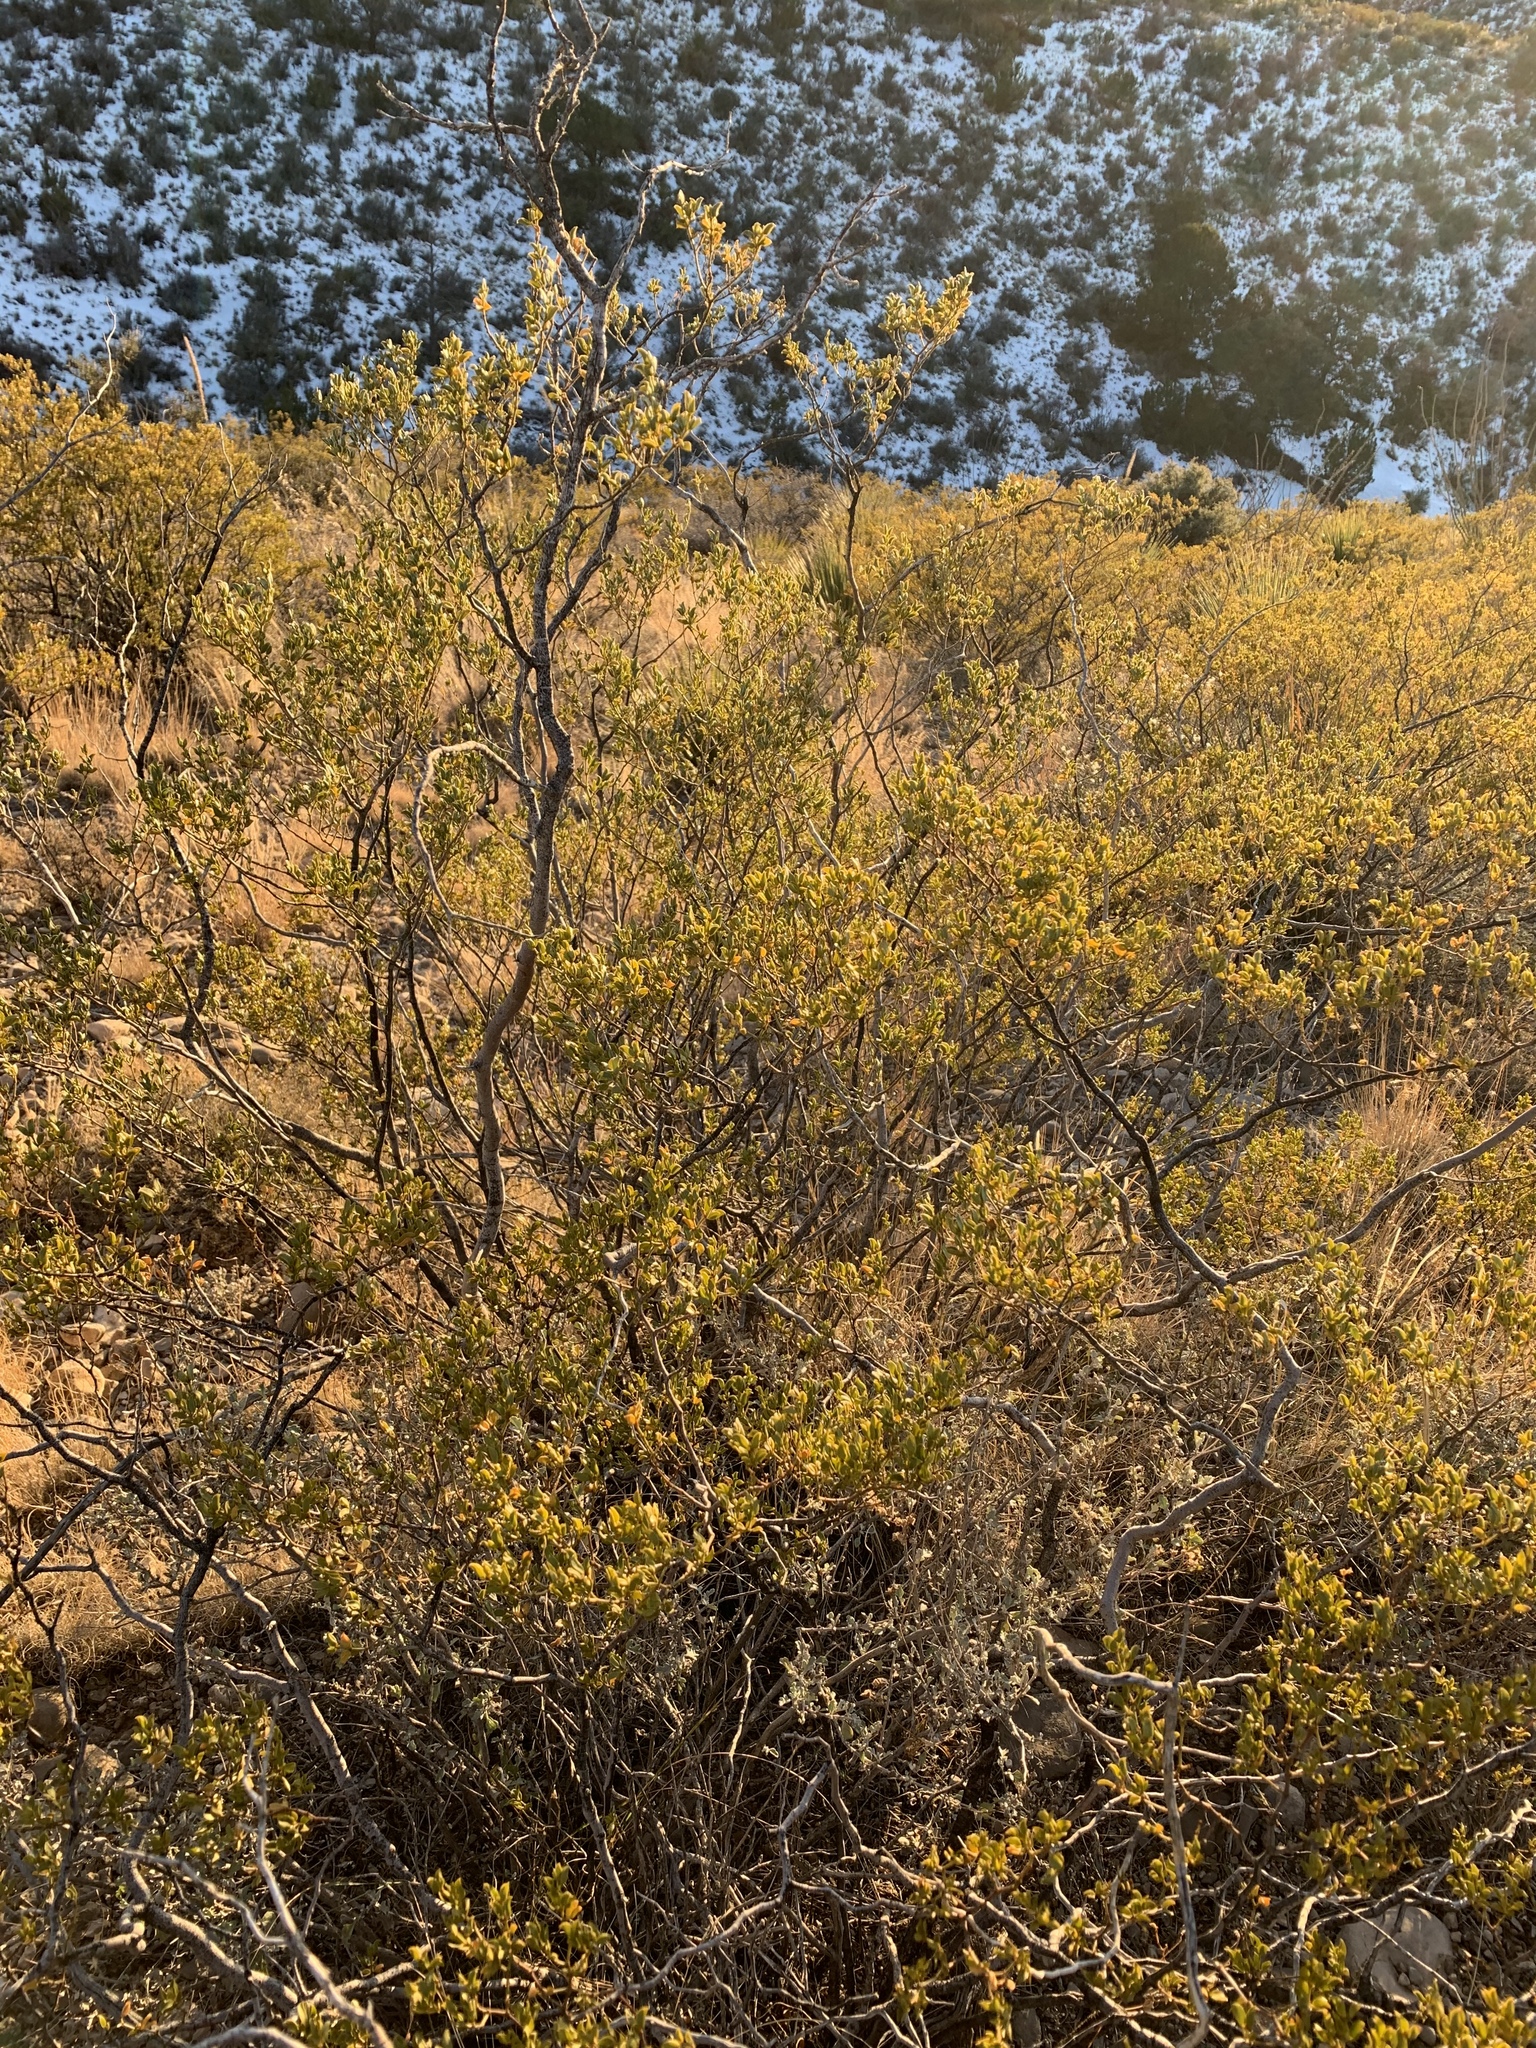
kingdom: Plantae
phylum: Tracheophyta
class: Magnoliopsida
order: Zygophyllales
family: Zygophyllaceae
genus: Larrea
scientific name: Larrea tridentata
